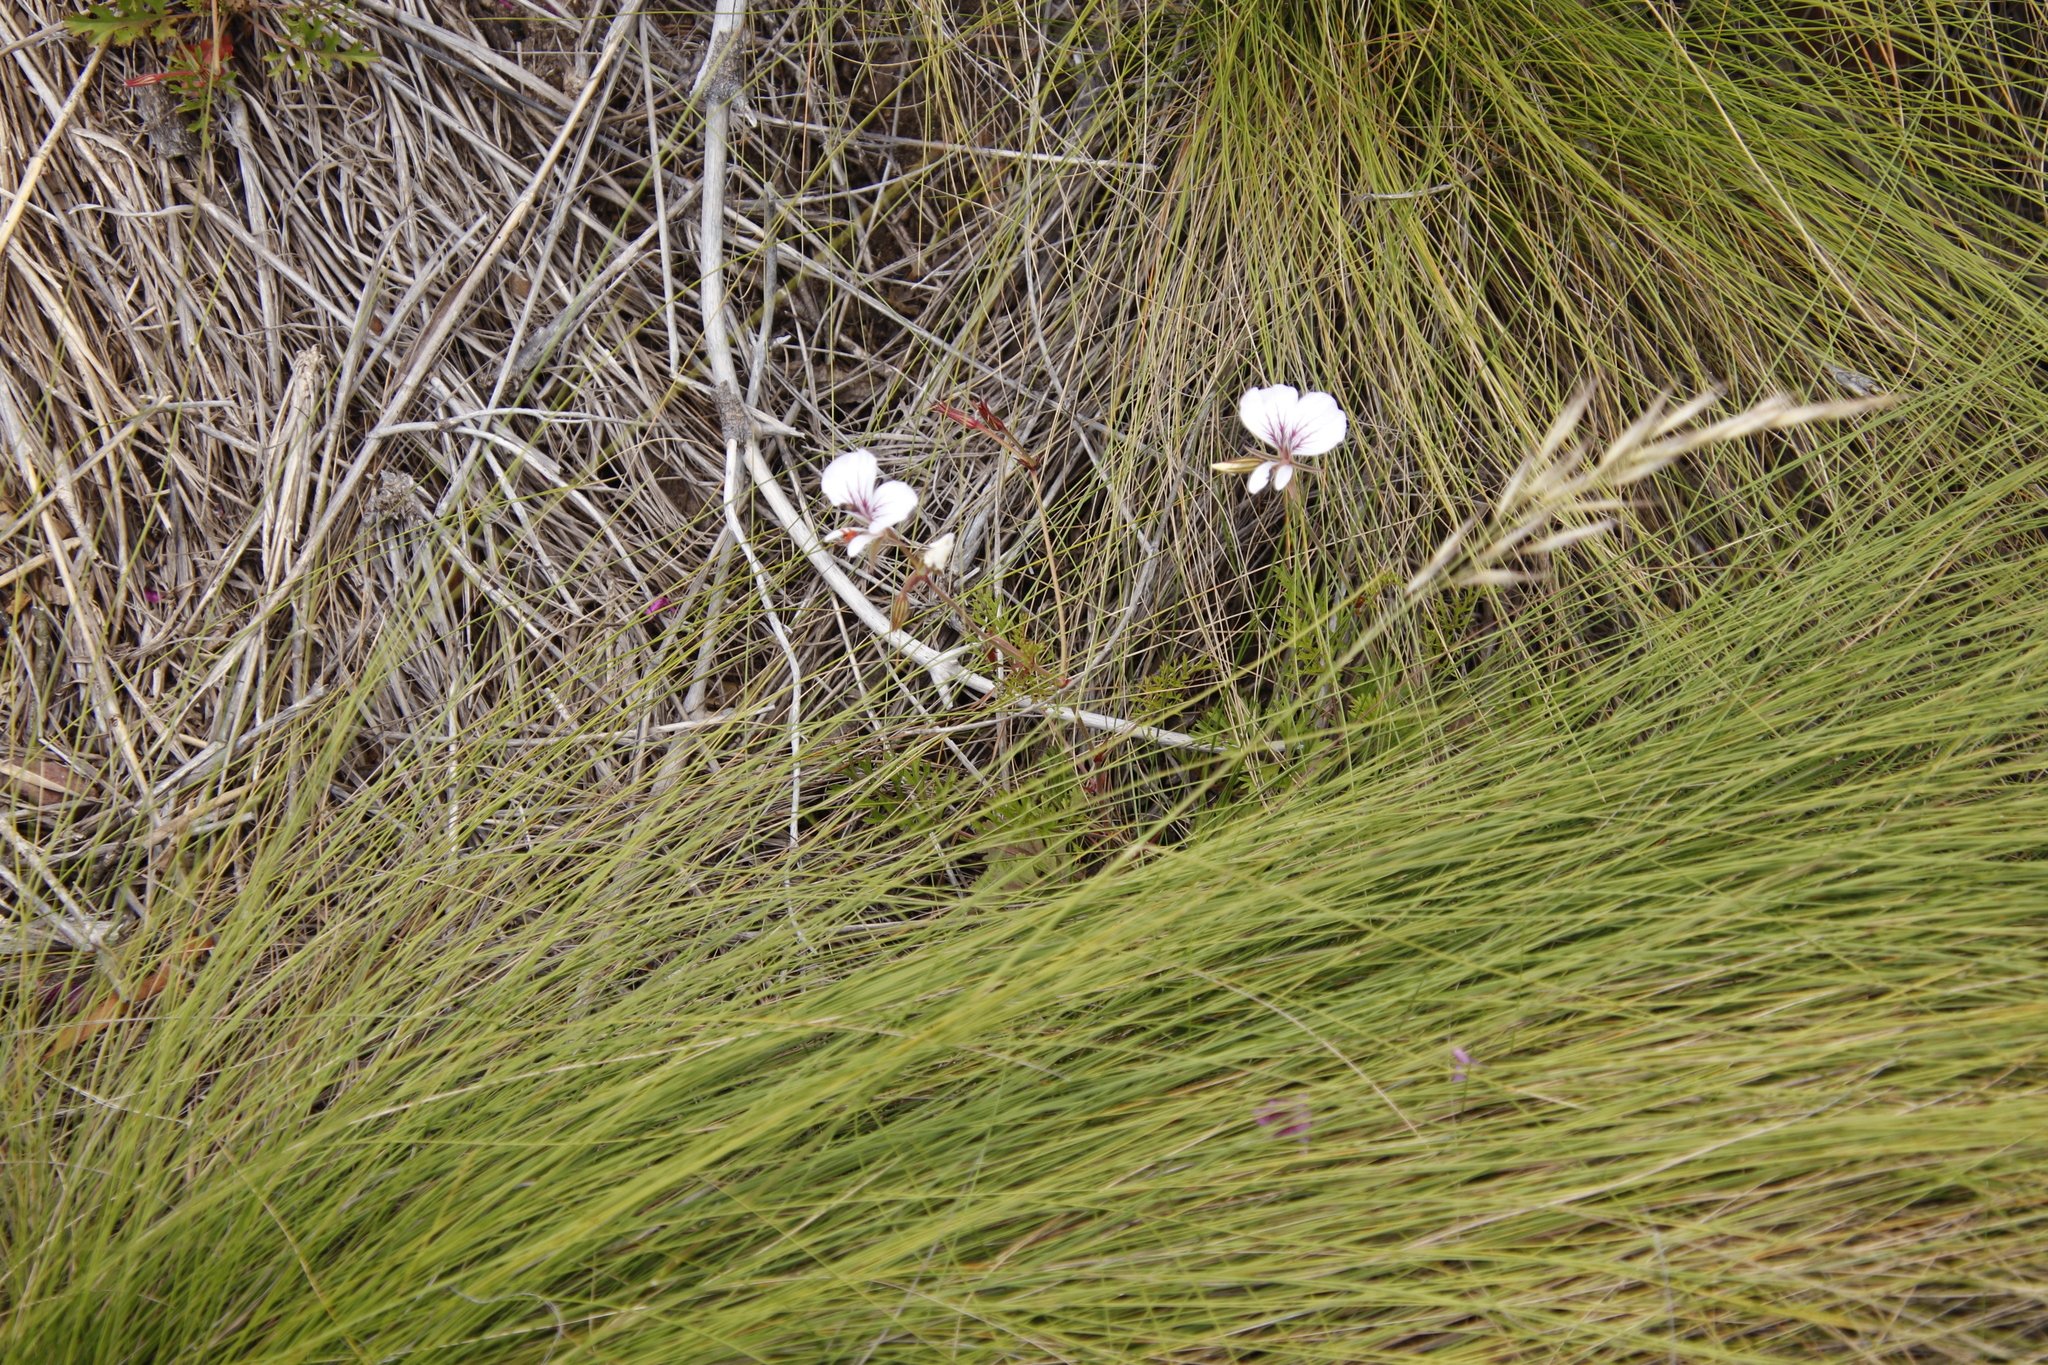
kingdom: Plantae
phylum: Tracheophyta
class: Magnoliopsida
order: Geraniales
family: Geraniaceae
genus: Pelargonium
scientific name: Pelargonium longicaule
